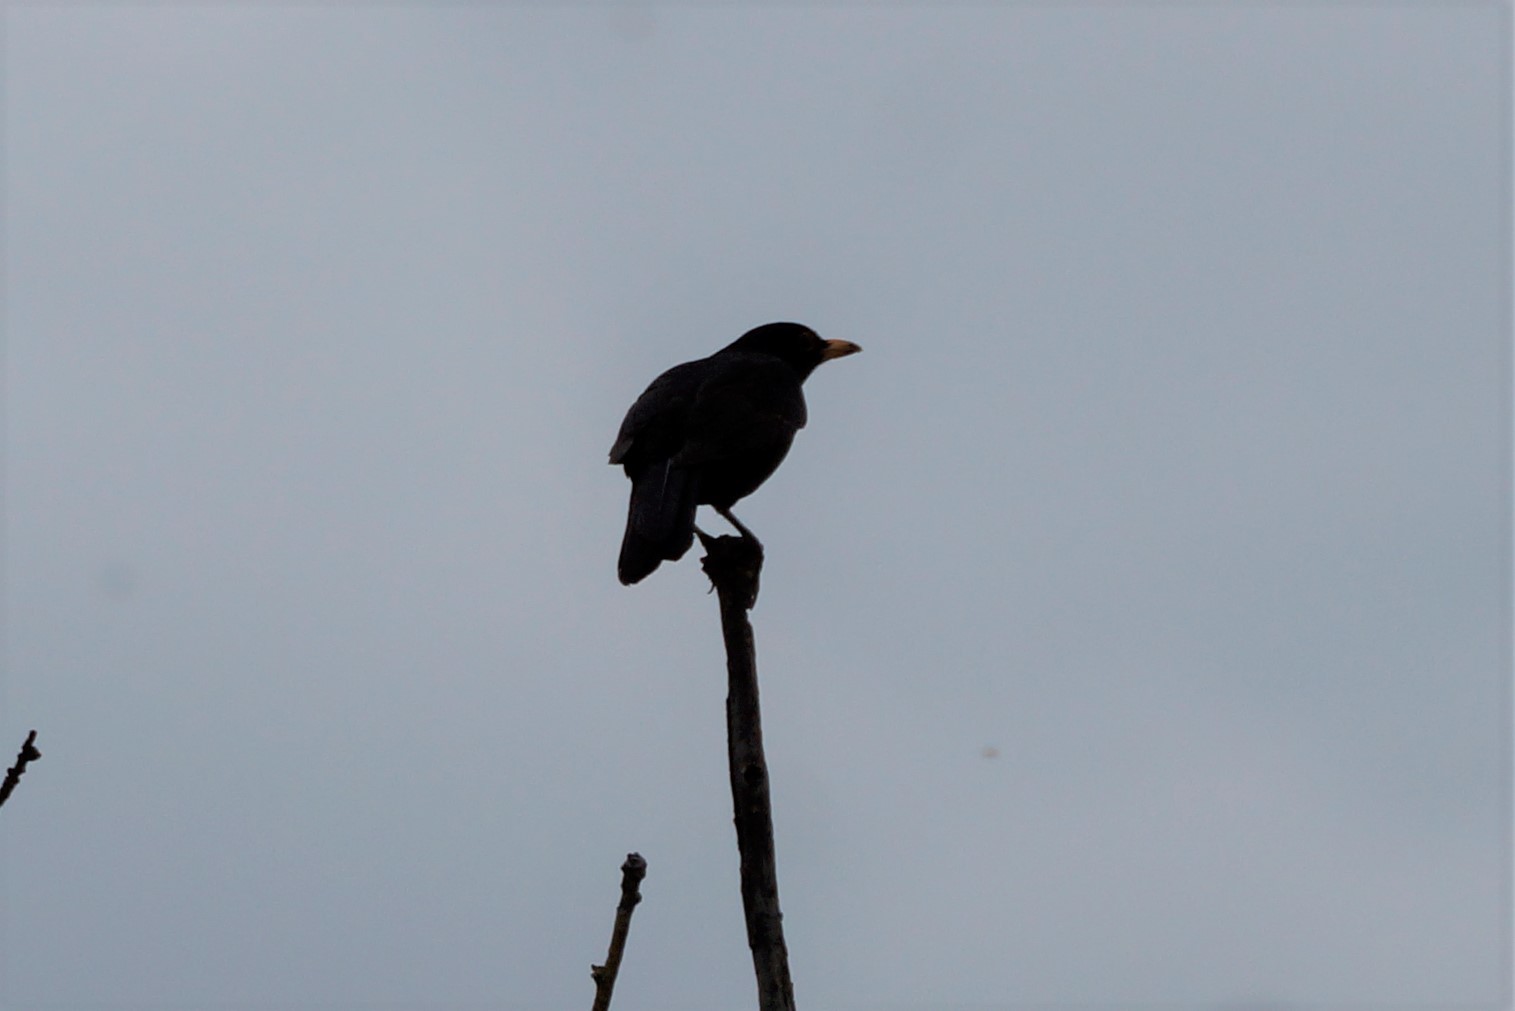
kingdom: Animalia
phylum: Chordata
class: Aves
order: Passeriformes
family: Turdidae
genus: Turdus
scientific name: Turdus merula
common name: Common blackbird
